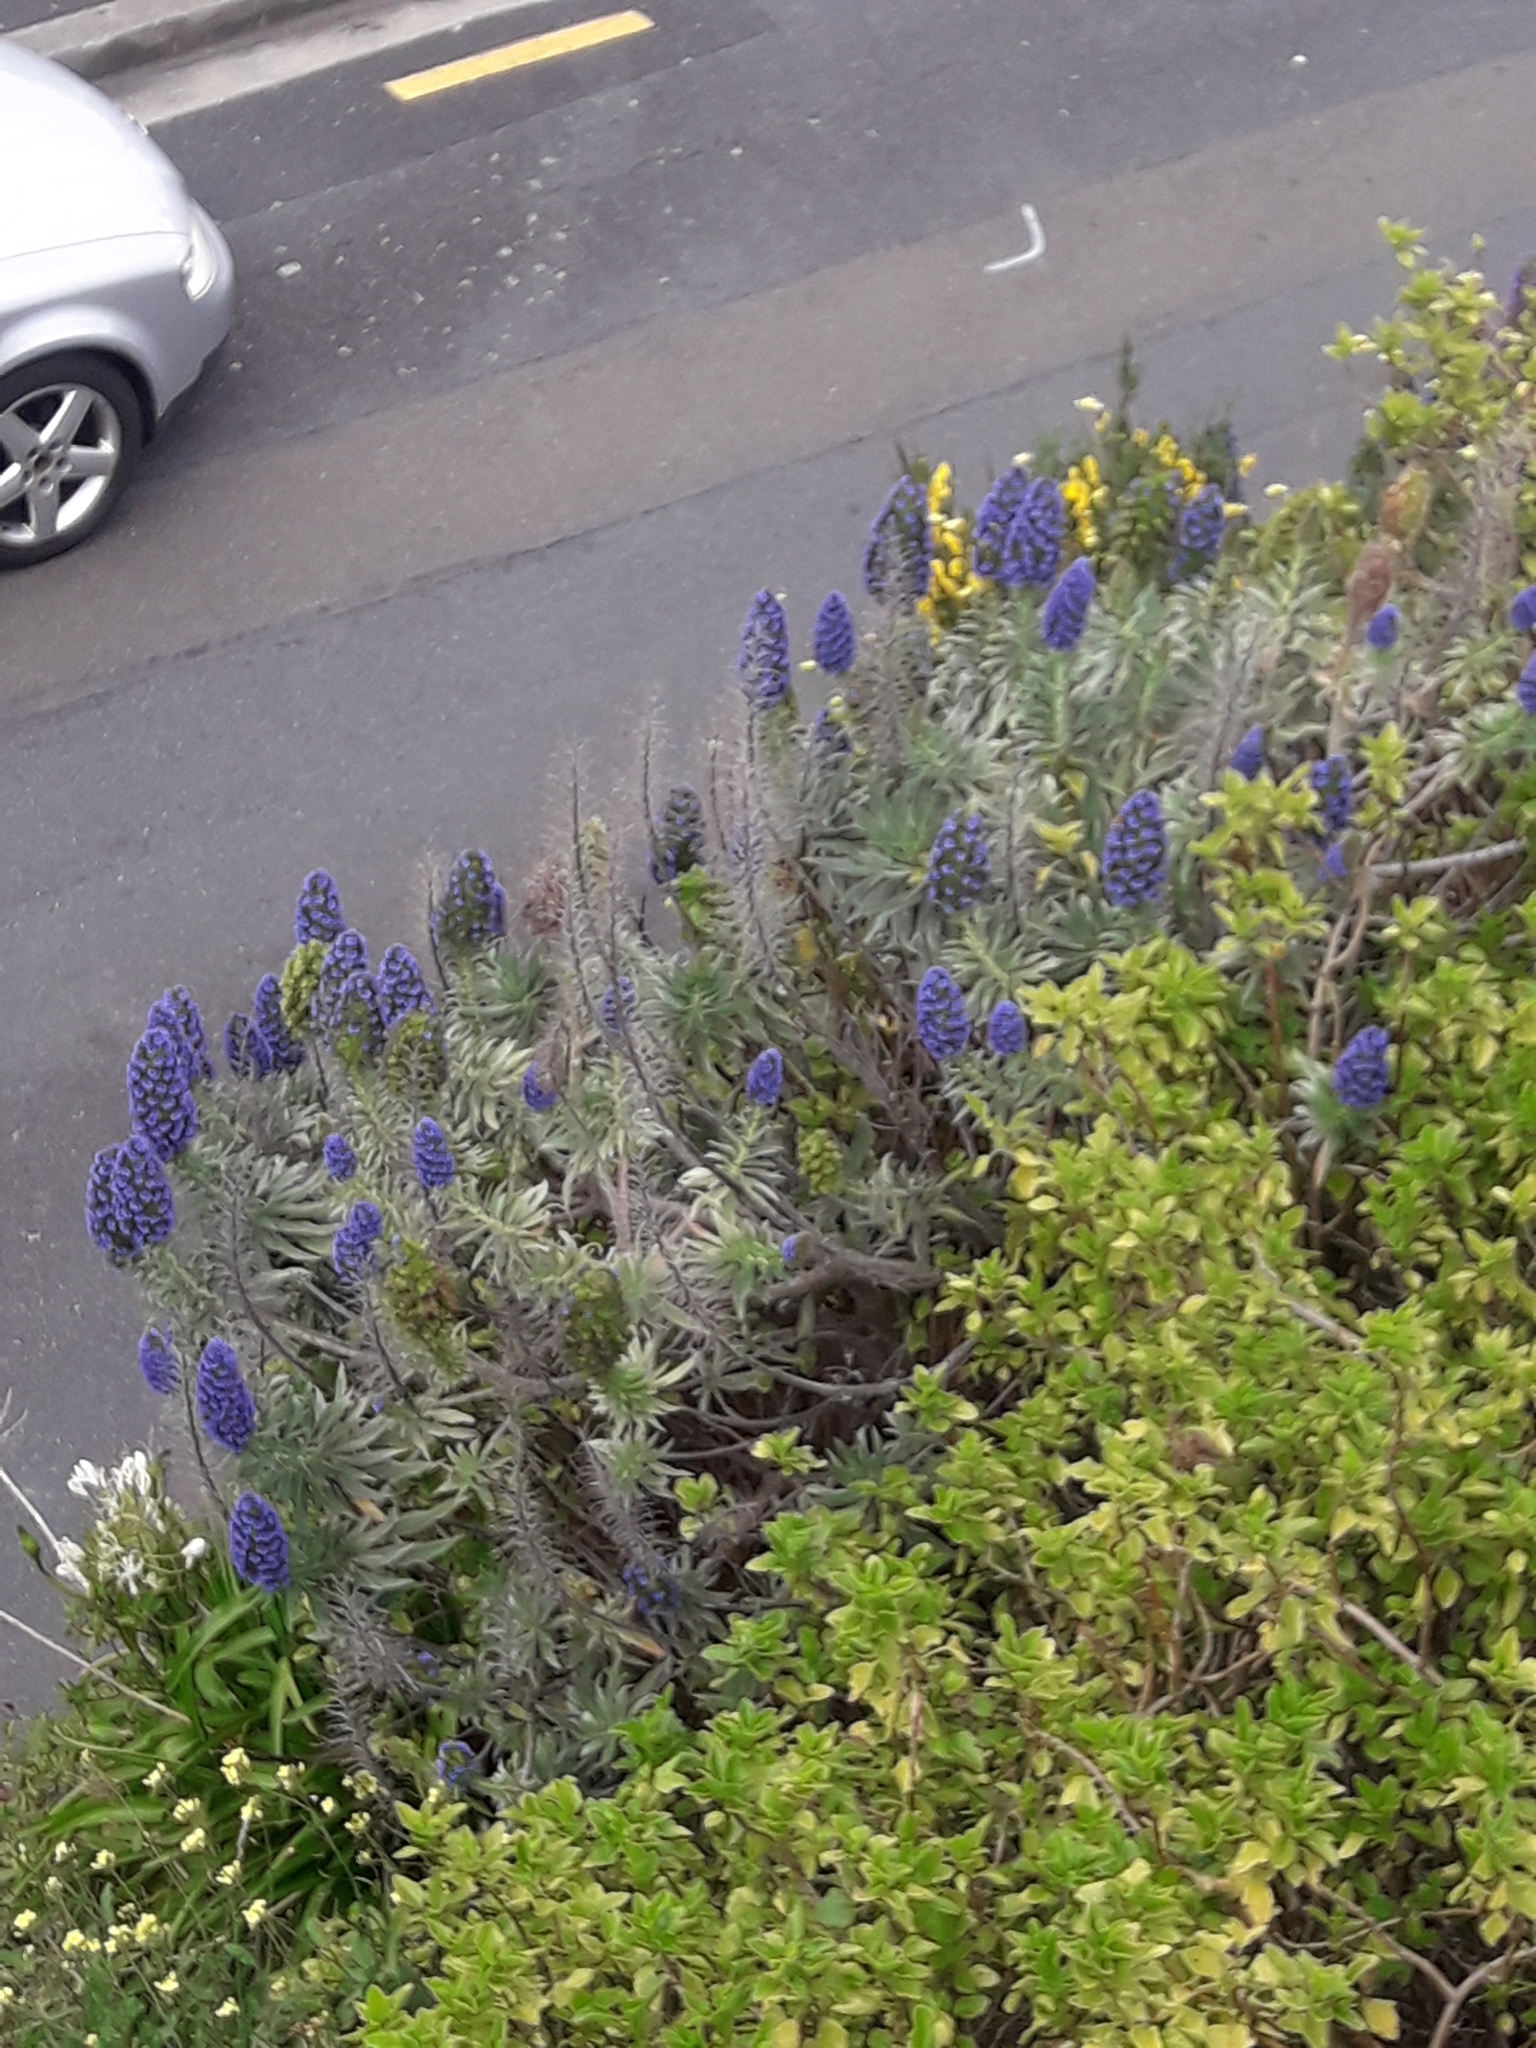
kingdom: Plantae
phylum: Tracheophyta
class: Magnoliopsida
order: Boraginales
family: Boraginaceae
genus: Echium
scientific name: Echium candicans
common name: Pride of madeira
